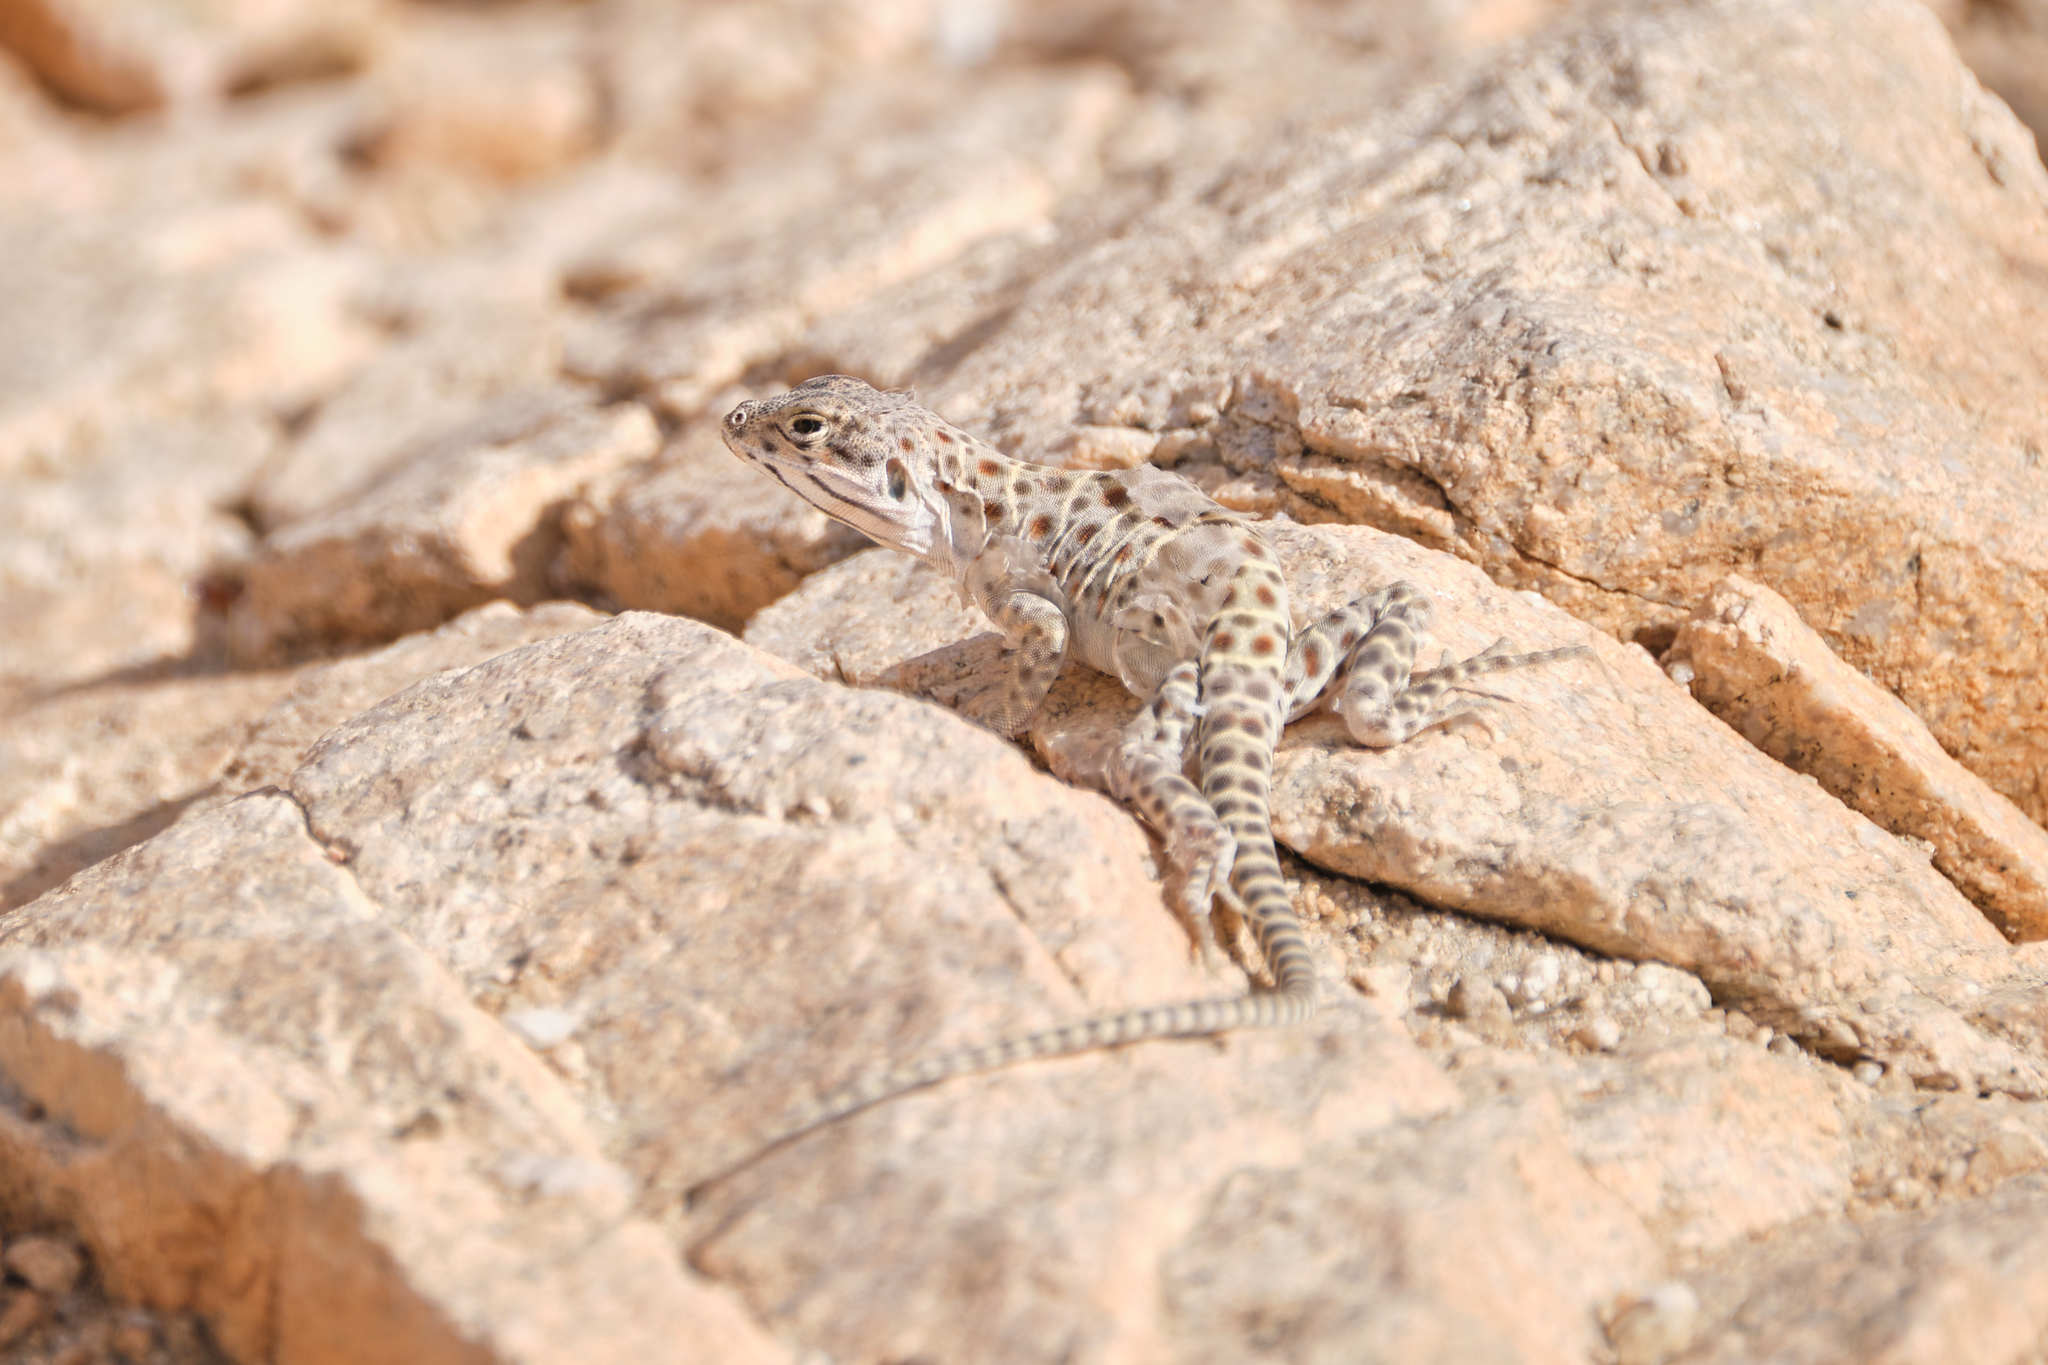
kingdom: Animalia
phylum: Chordata
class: Squamata
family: Crotaphytidae
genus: Gambelia
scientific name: Gambelia wislizenii
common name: Longnose leopard lizard
